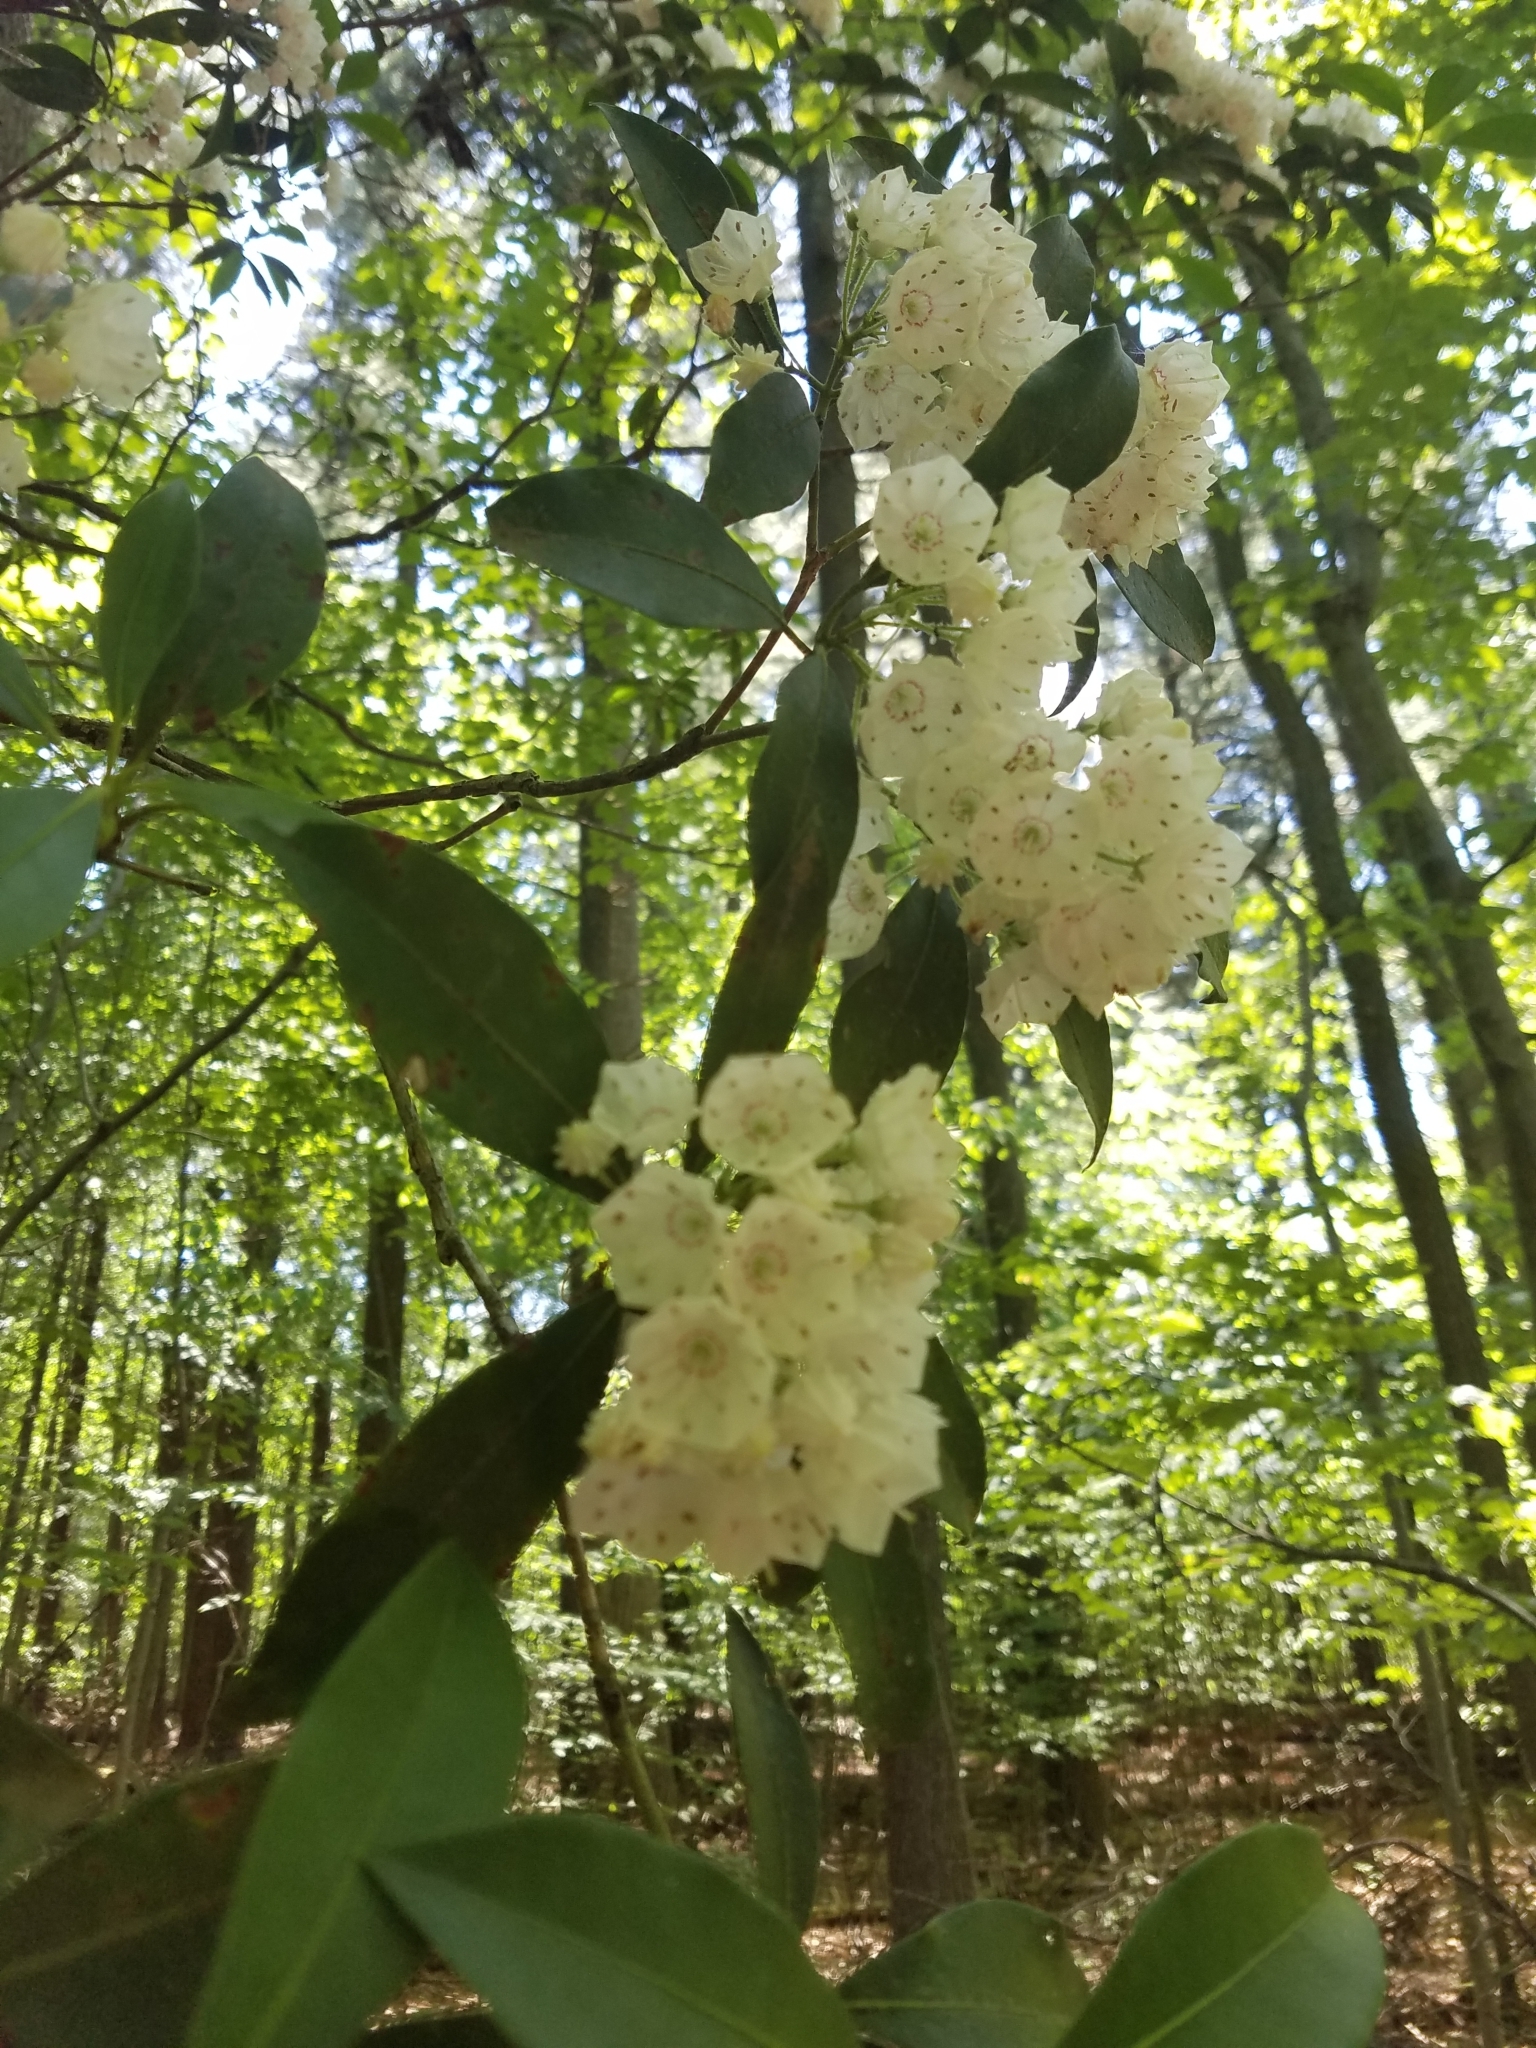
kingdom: Plantae
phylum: Tracheophyta
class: Magnoliopsida
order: Ericales
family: Ericaceae
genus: Kalmia
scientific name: Kalmia latifolia
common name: Mountain-laurel
